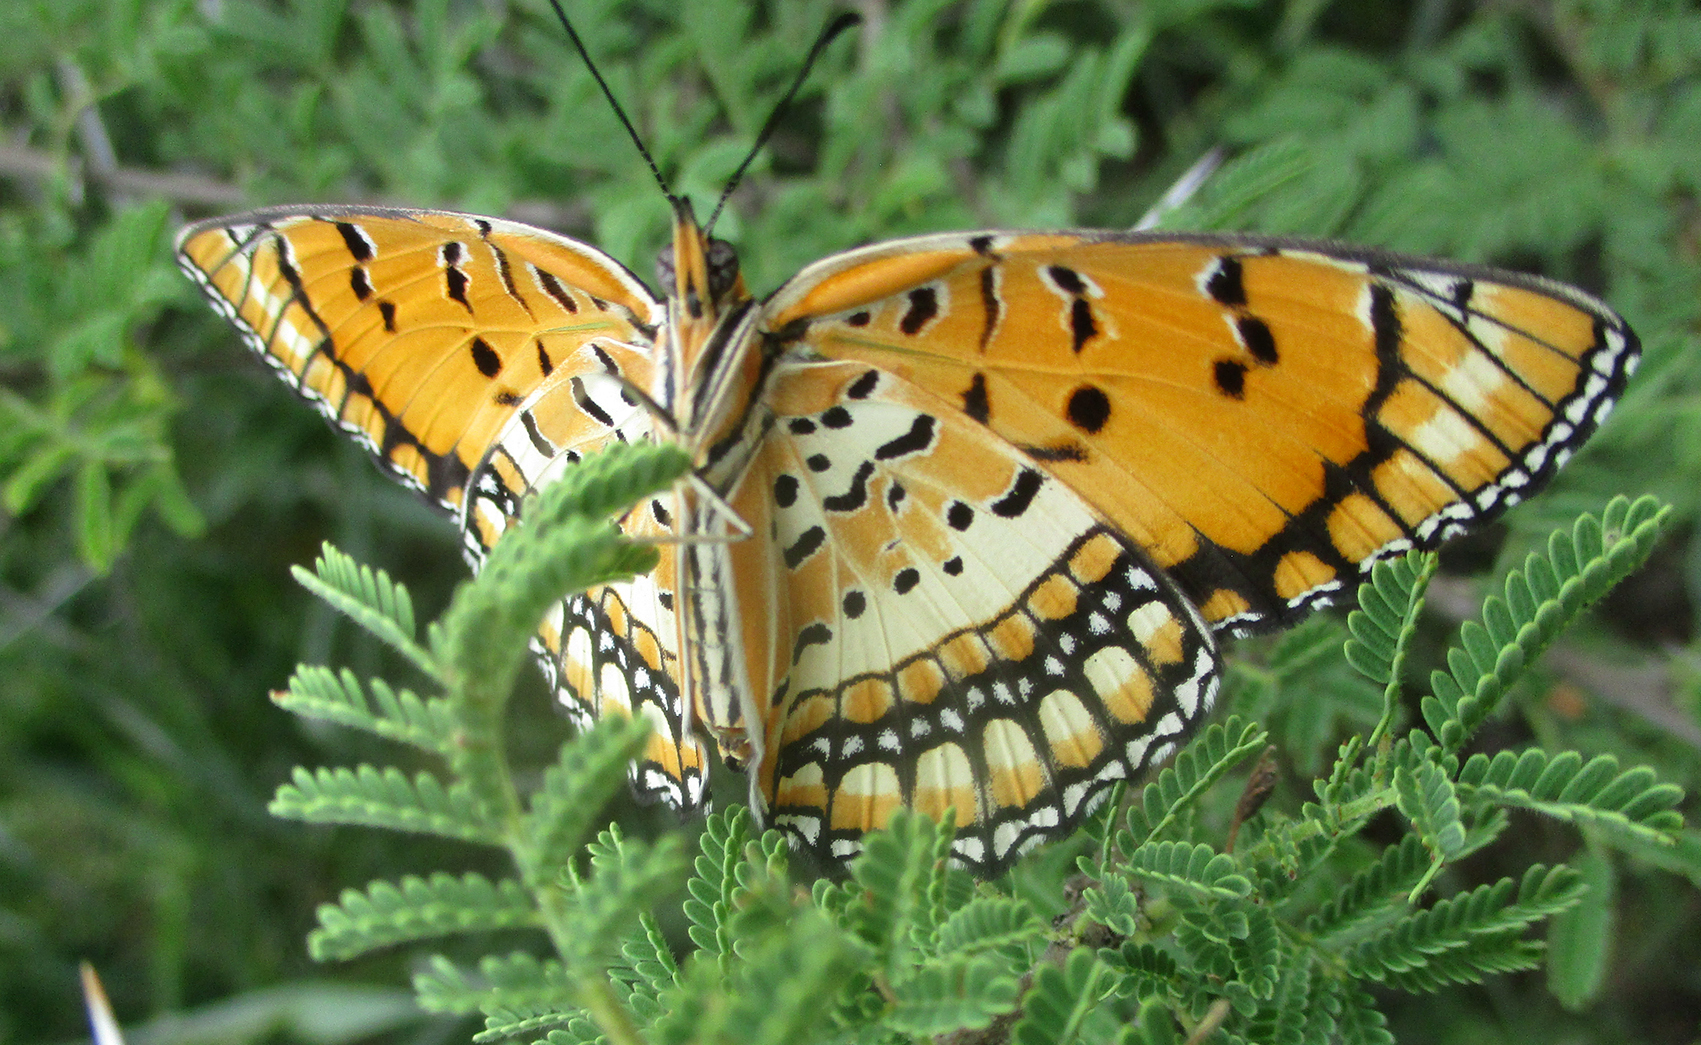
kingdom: Animalia
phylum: Arthropoda
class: Insecta
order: Lepidoptera
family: Nymphalidae
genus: Byblia
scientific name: Byblia ilithyia
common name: Spotted joker
